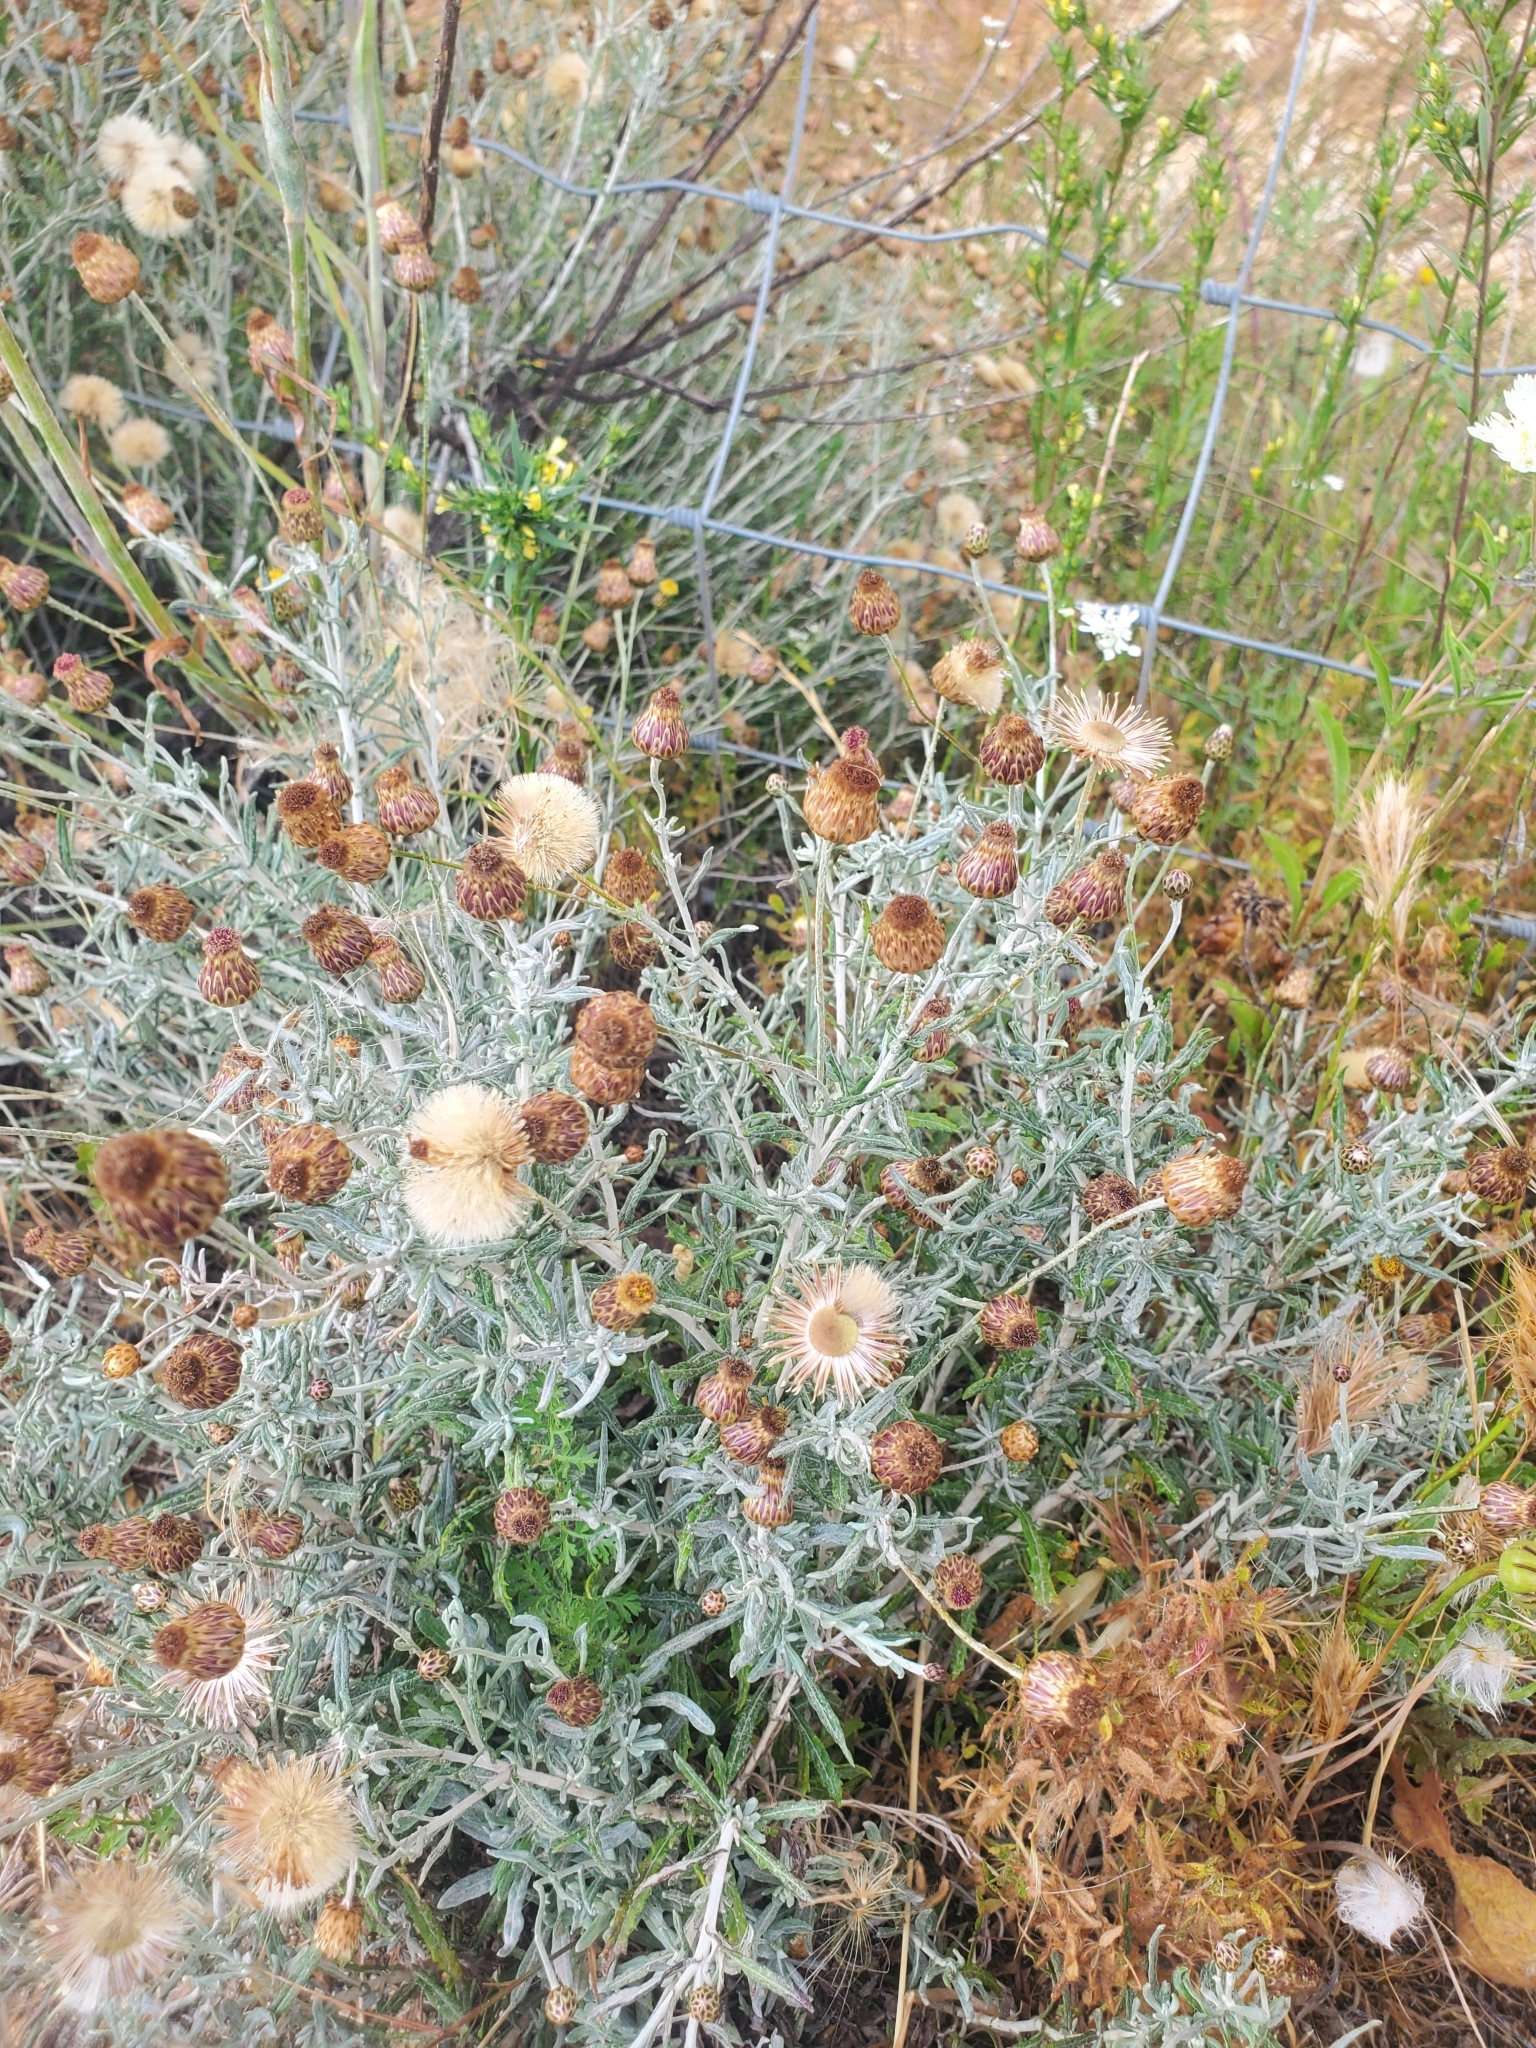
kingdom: Plantae
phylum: Tracheophyta
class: Magnoliopsida
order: Asterales
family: Asteraceae
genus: Phagnalon
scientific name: Phagnalon rupestre
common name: Rock phagnalon
